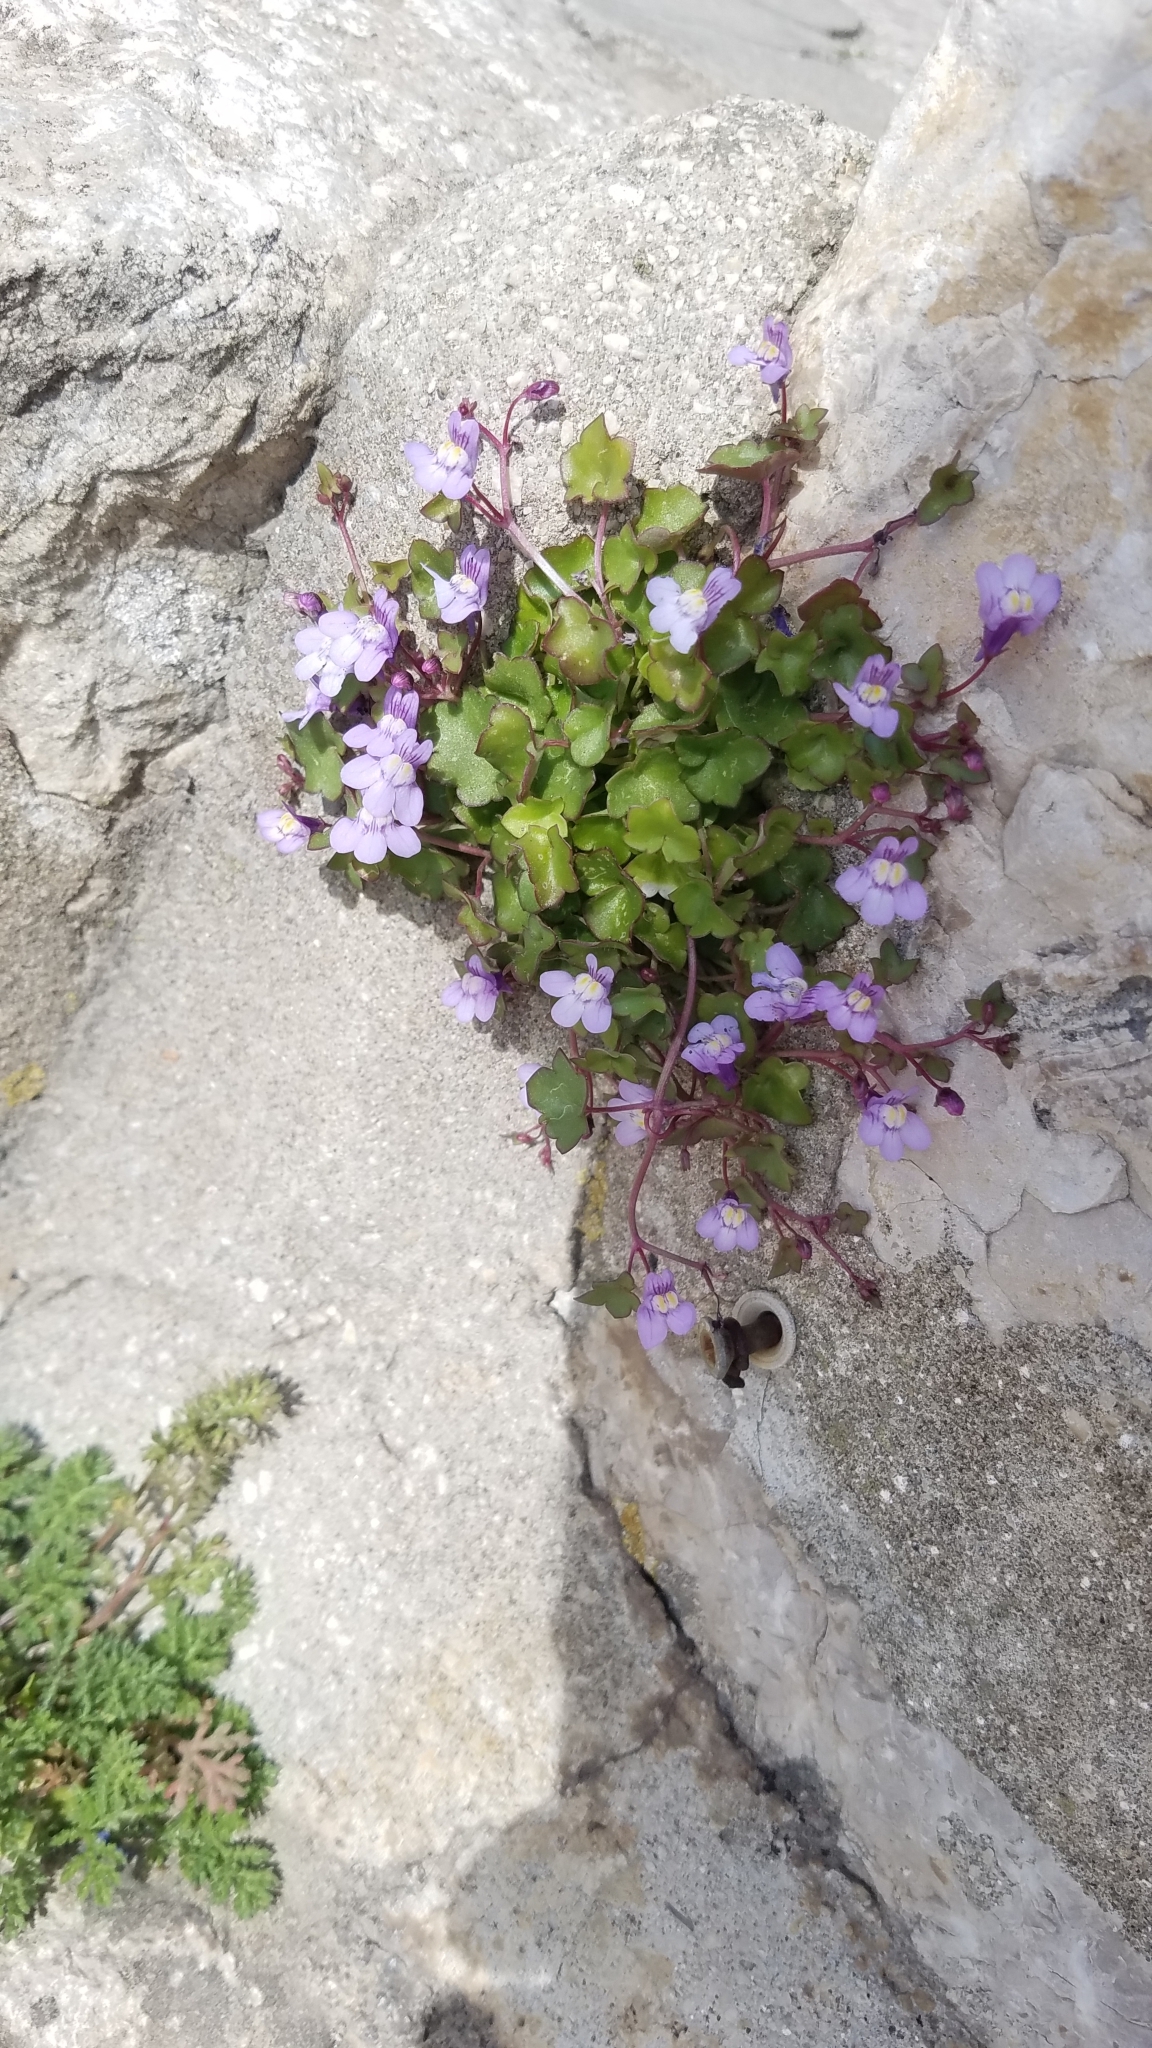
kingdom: Plantae
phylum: Tracheophyta
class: Magnoliopsida
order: Lamiales
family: Plantaginaceae
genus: Cymbalaria
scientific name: Cymbalaria muralis
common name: Ivy-leaved toadflax
